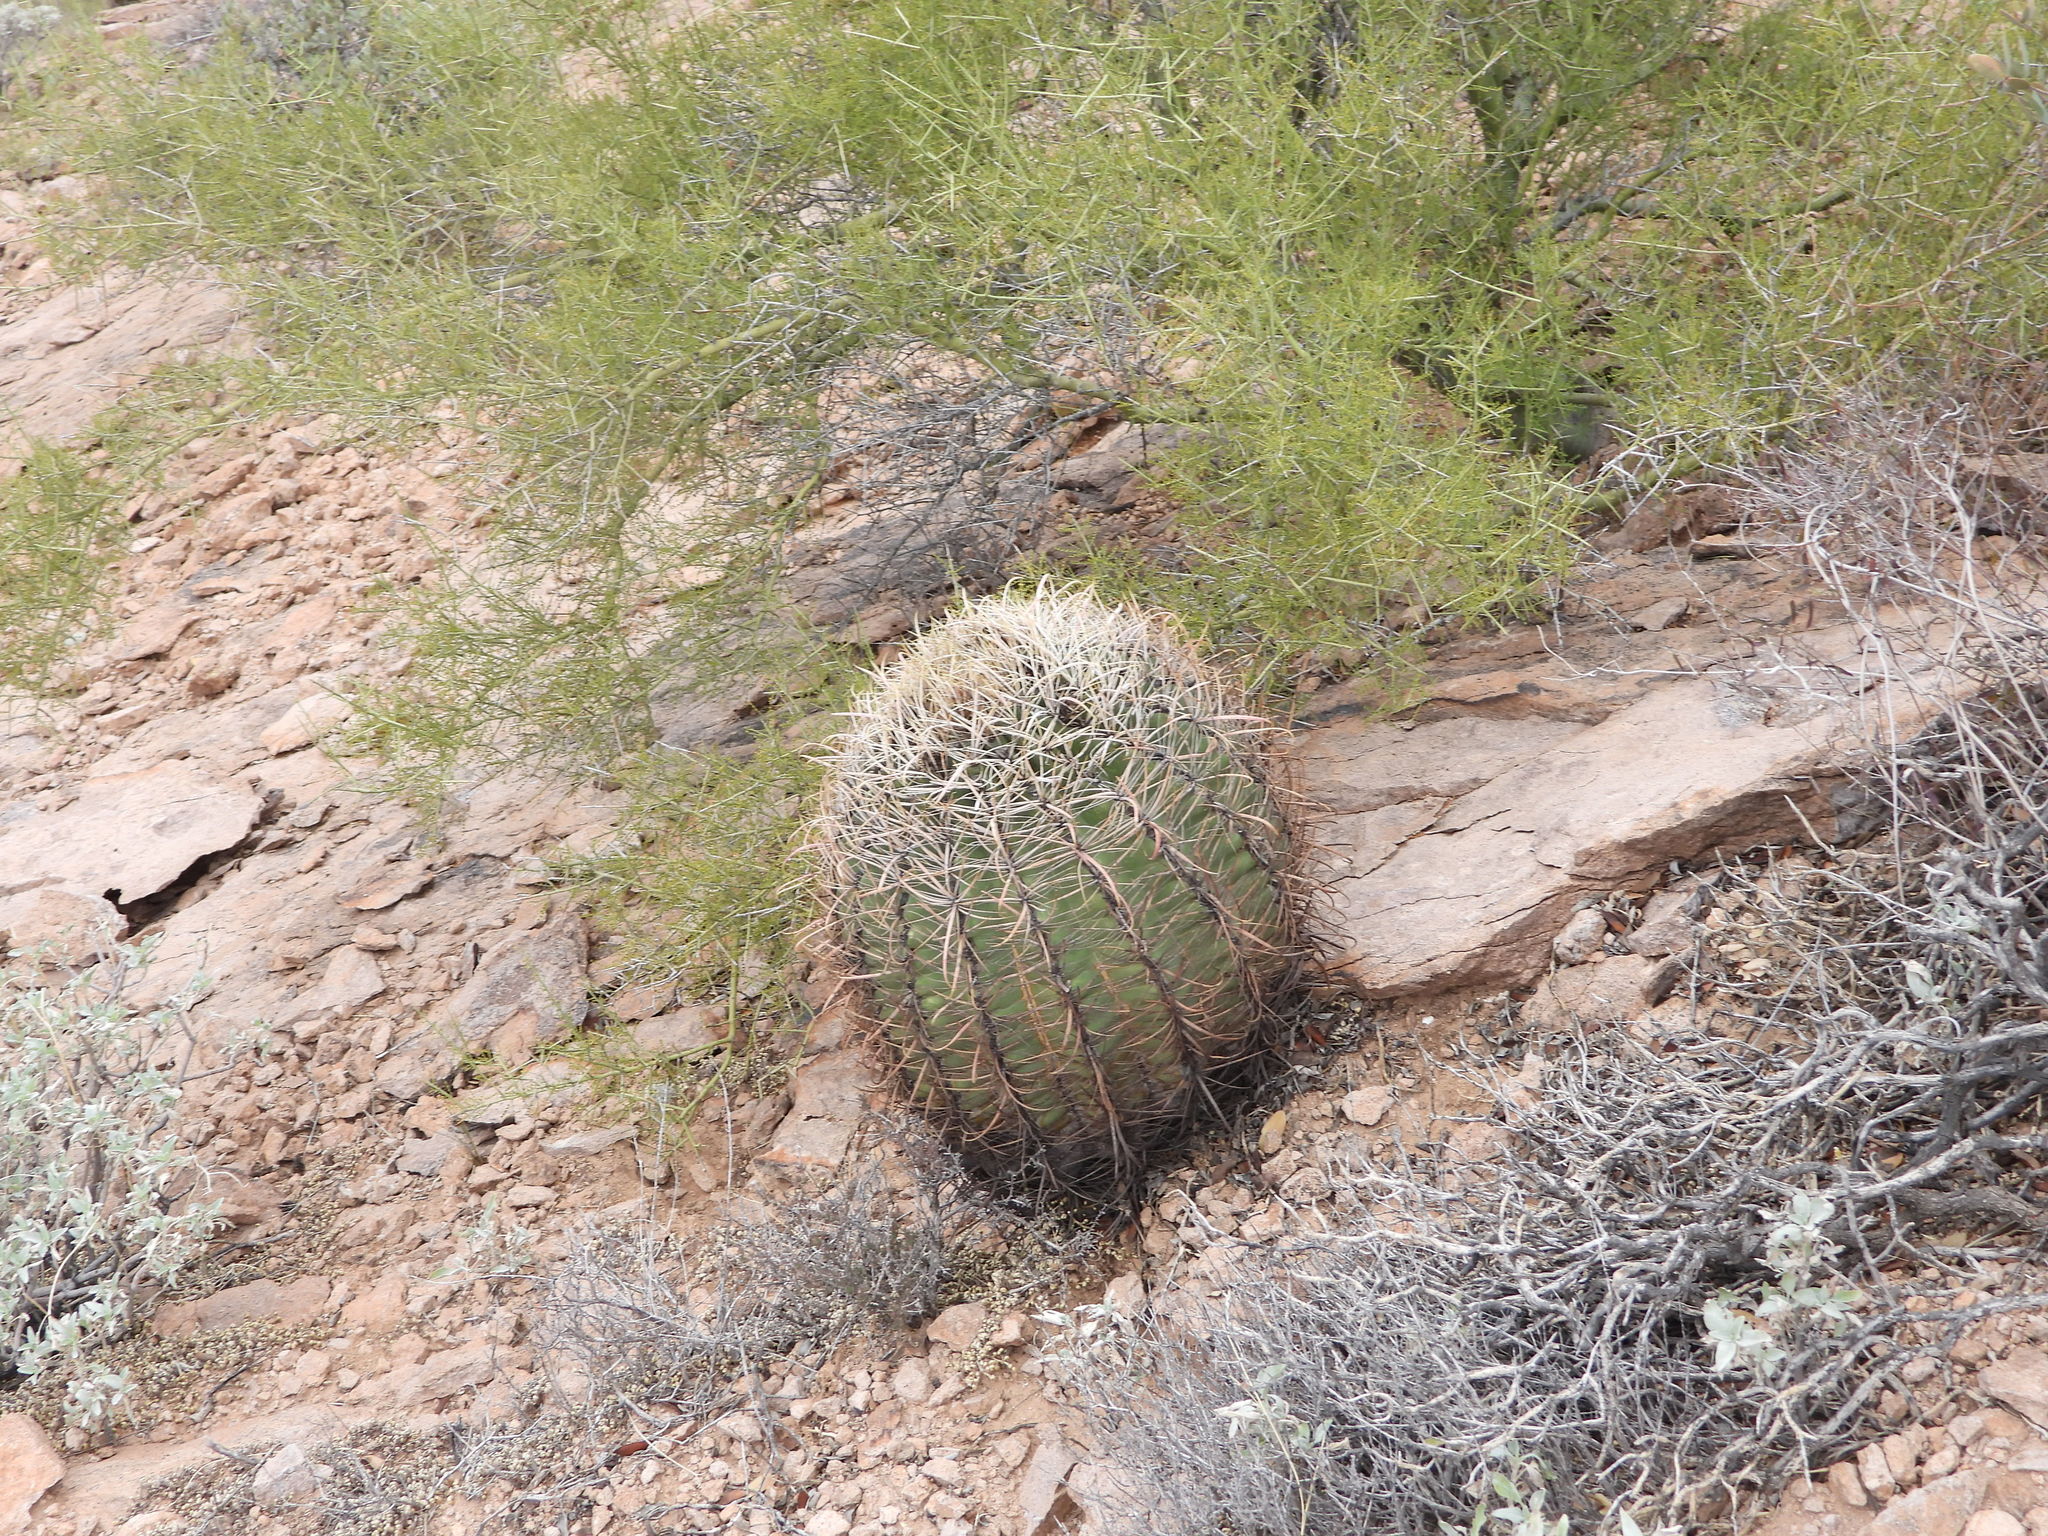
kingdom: Plantae
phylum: Tracheophyta
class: Magnoliopsida
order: Caryophyllales
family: Cactaceae
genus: Ferocactus
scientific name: Ferocactus cylindraceus
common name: California barrel cactus
